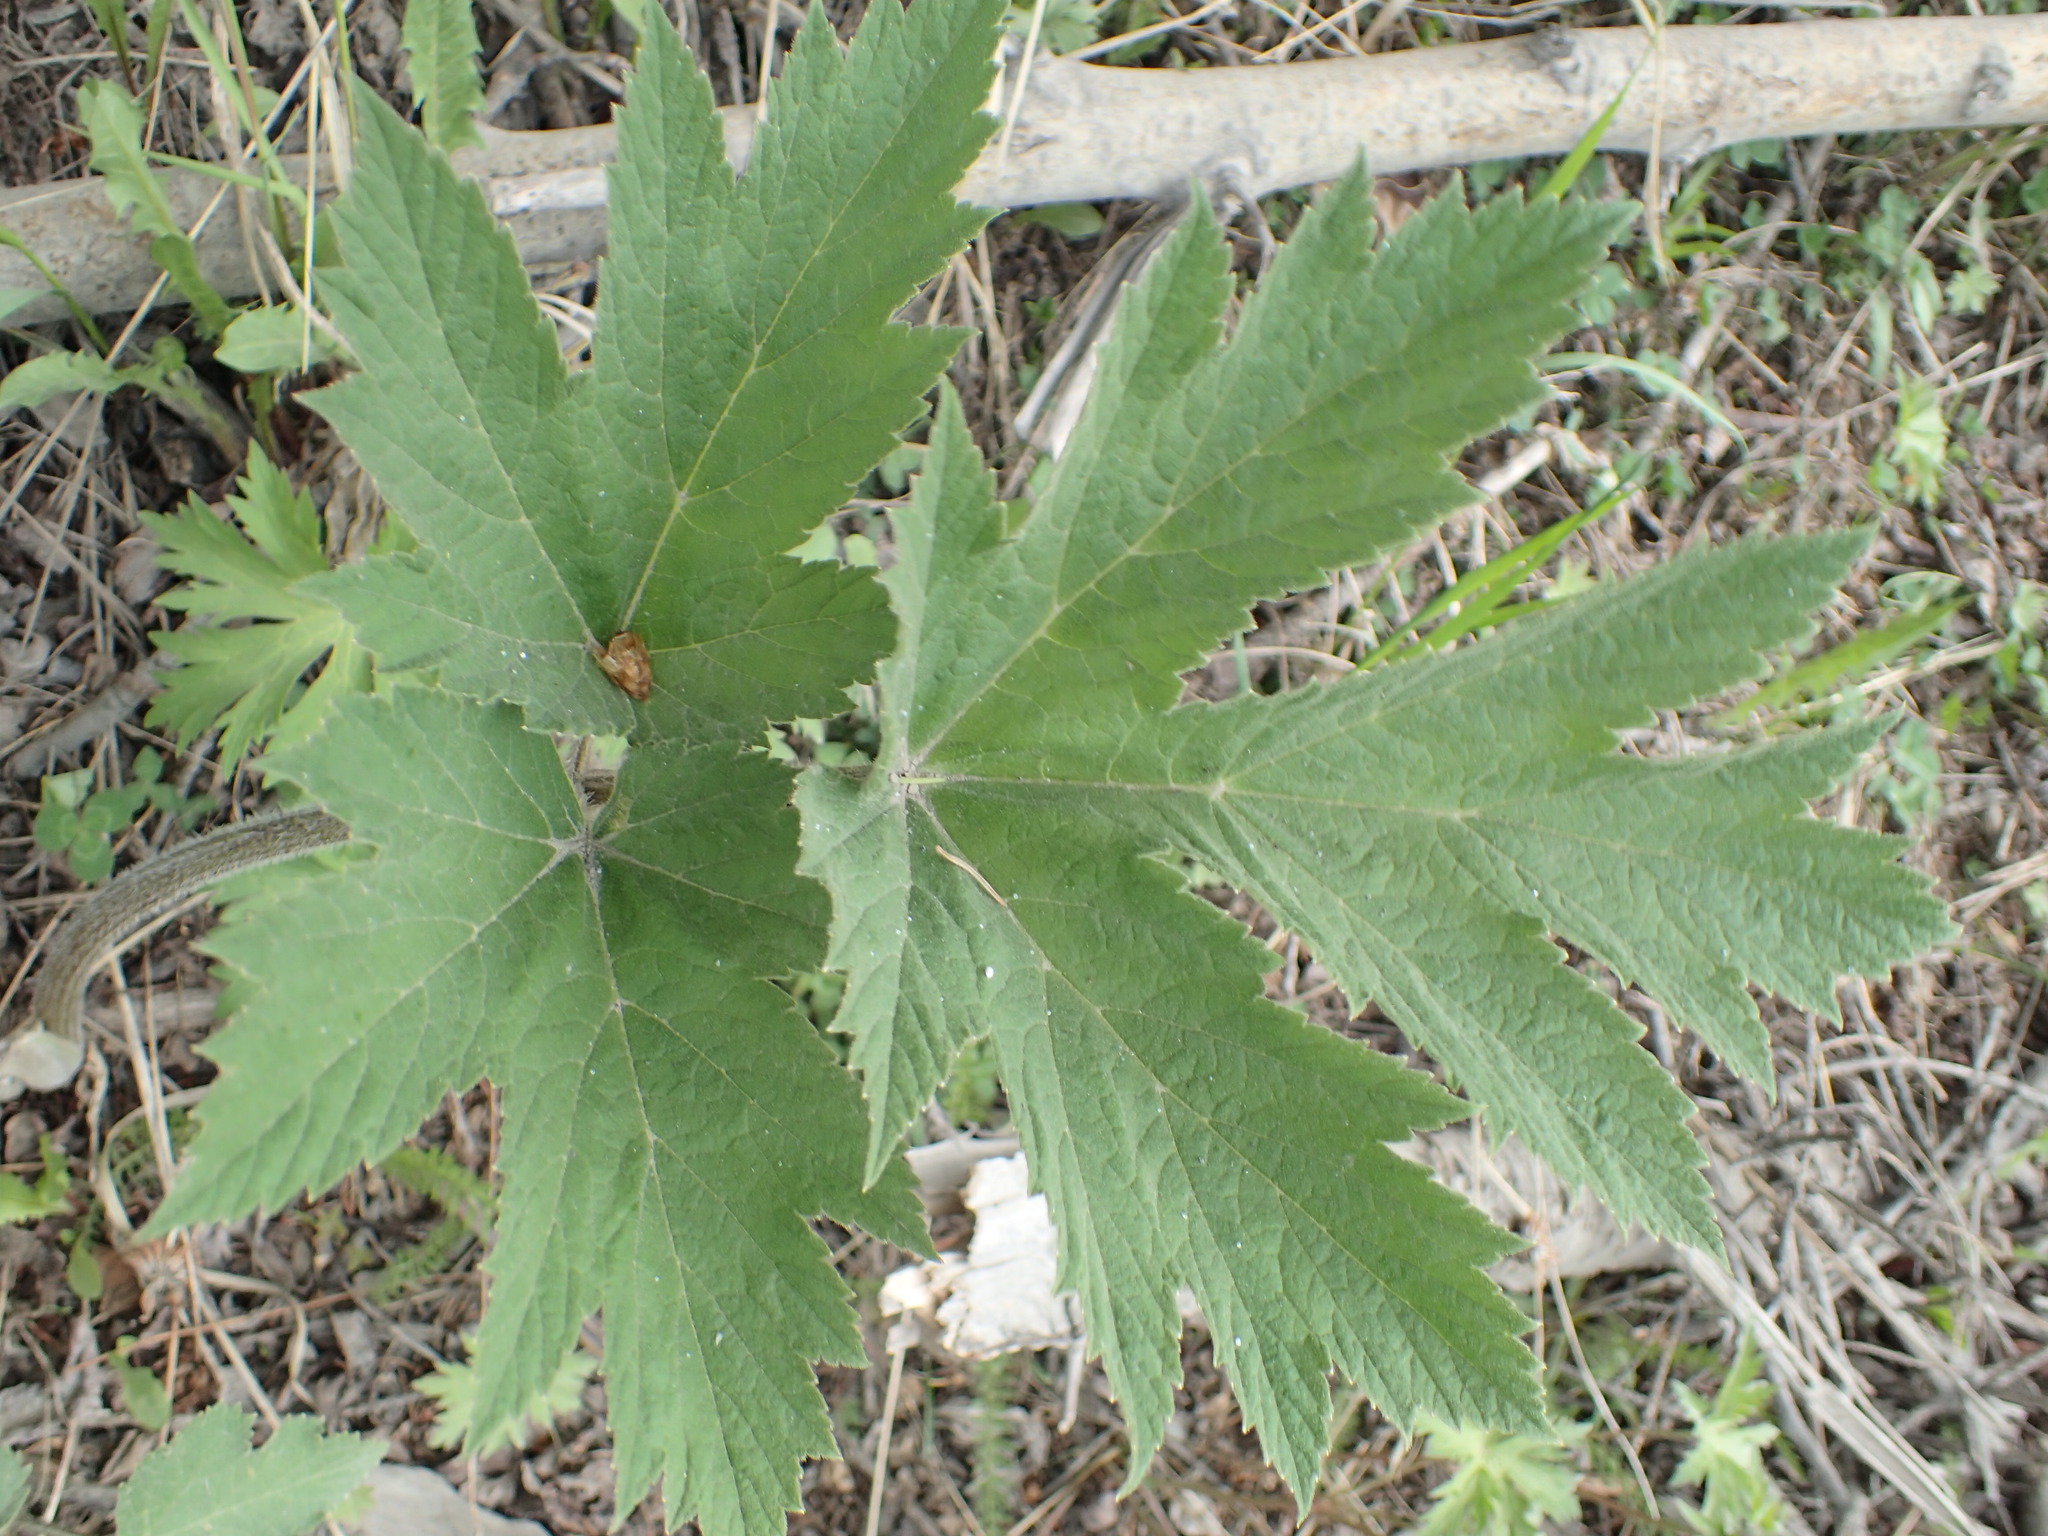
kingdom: Plantae
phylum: Tracheophyta
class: Magnoliopsida
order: Apiales
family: Apiaceae
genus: Heracleum
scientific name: Heracleum maximum
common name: American cow parsnip
